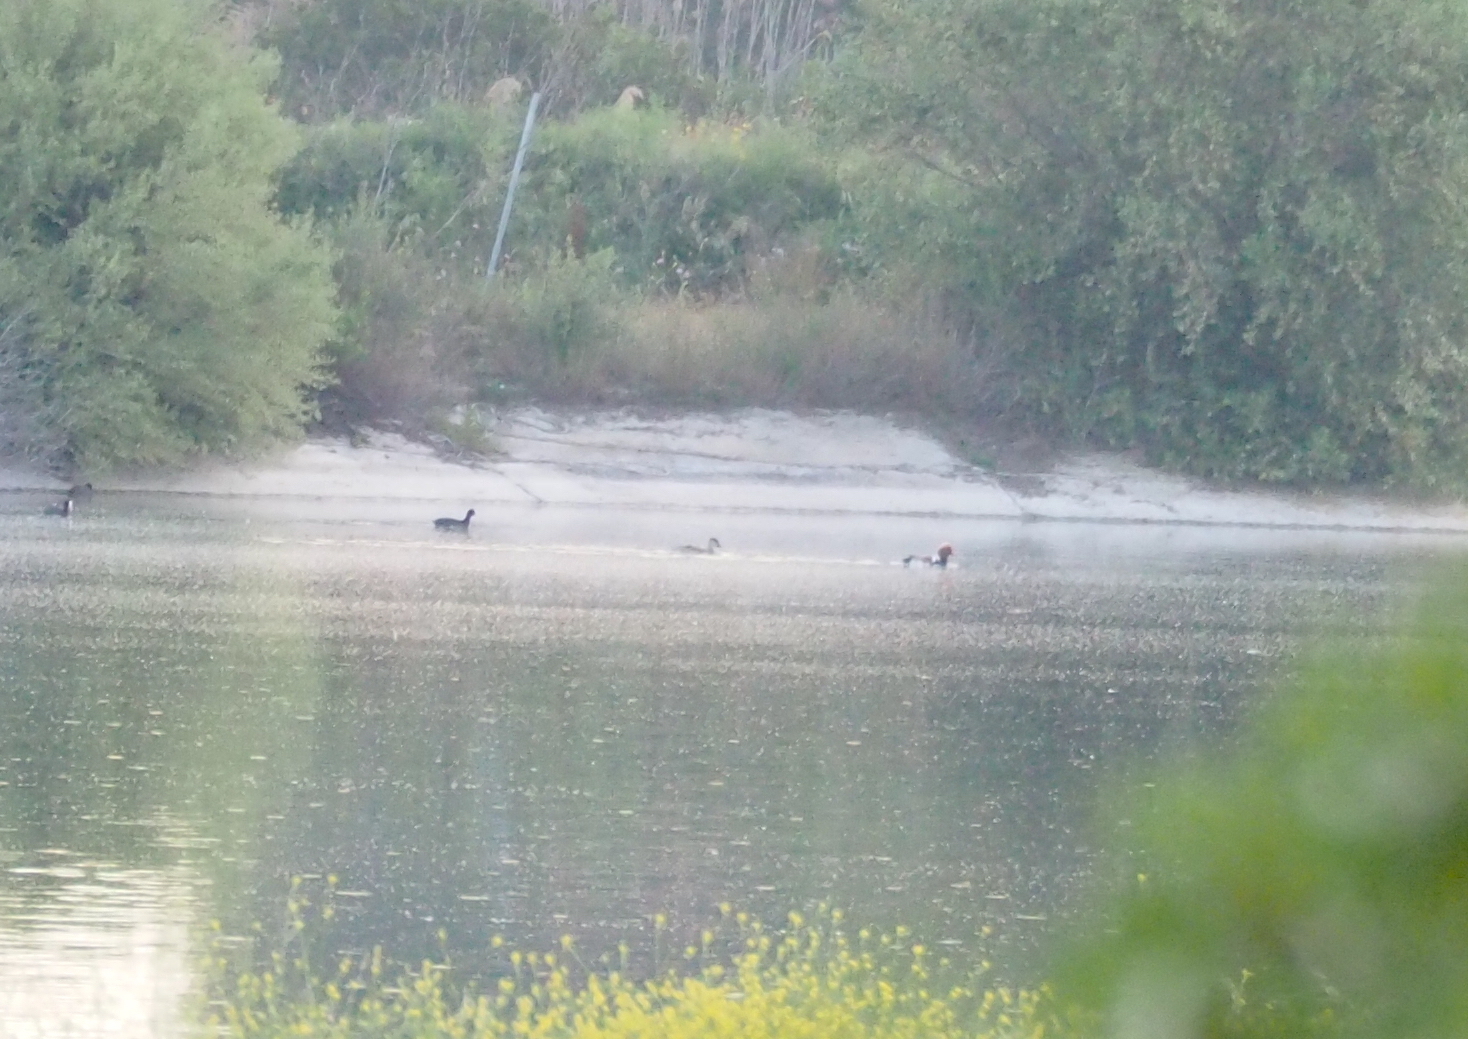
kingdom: Animalia
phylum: Chordata
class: Aves
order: Anseriformes
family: Anatidae
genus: Netta
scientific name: Netta rufina
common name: Red-crested pochard
